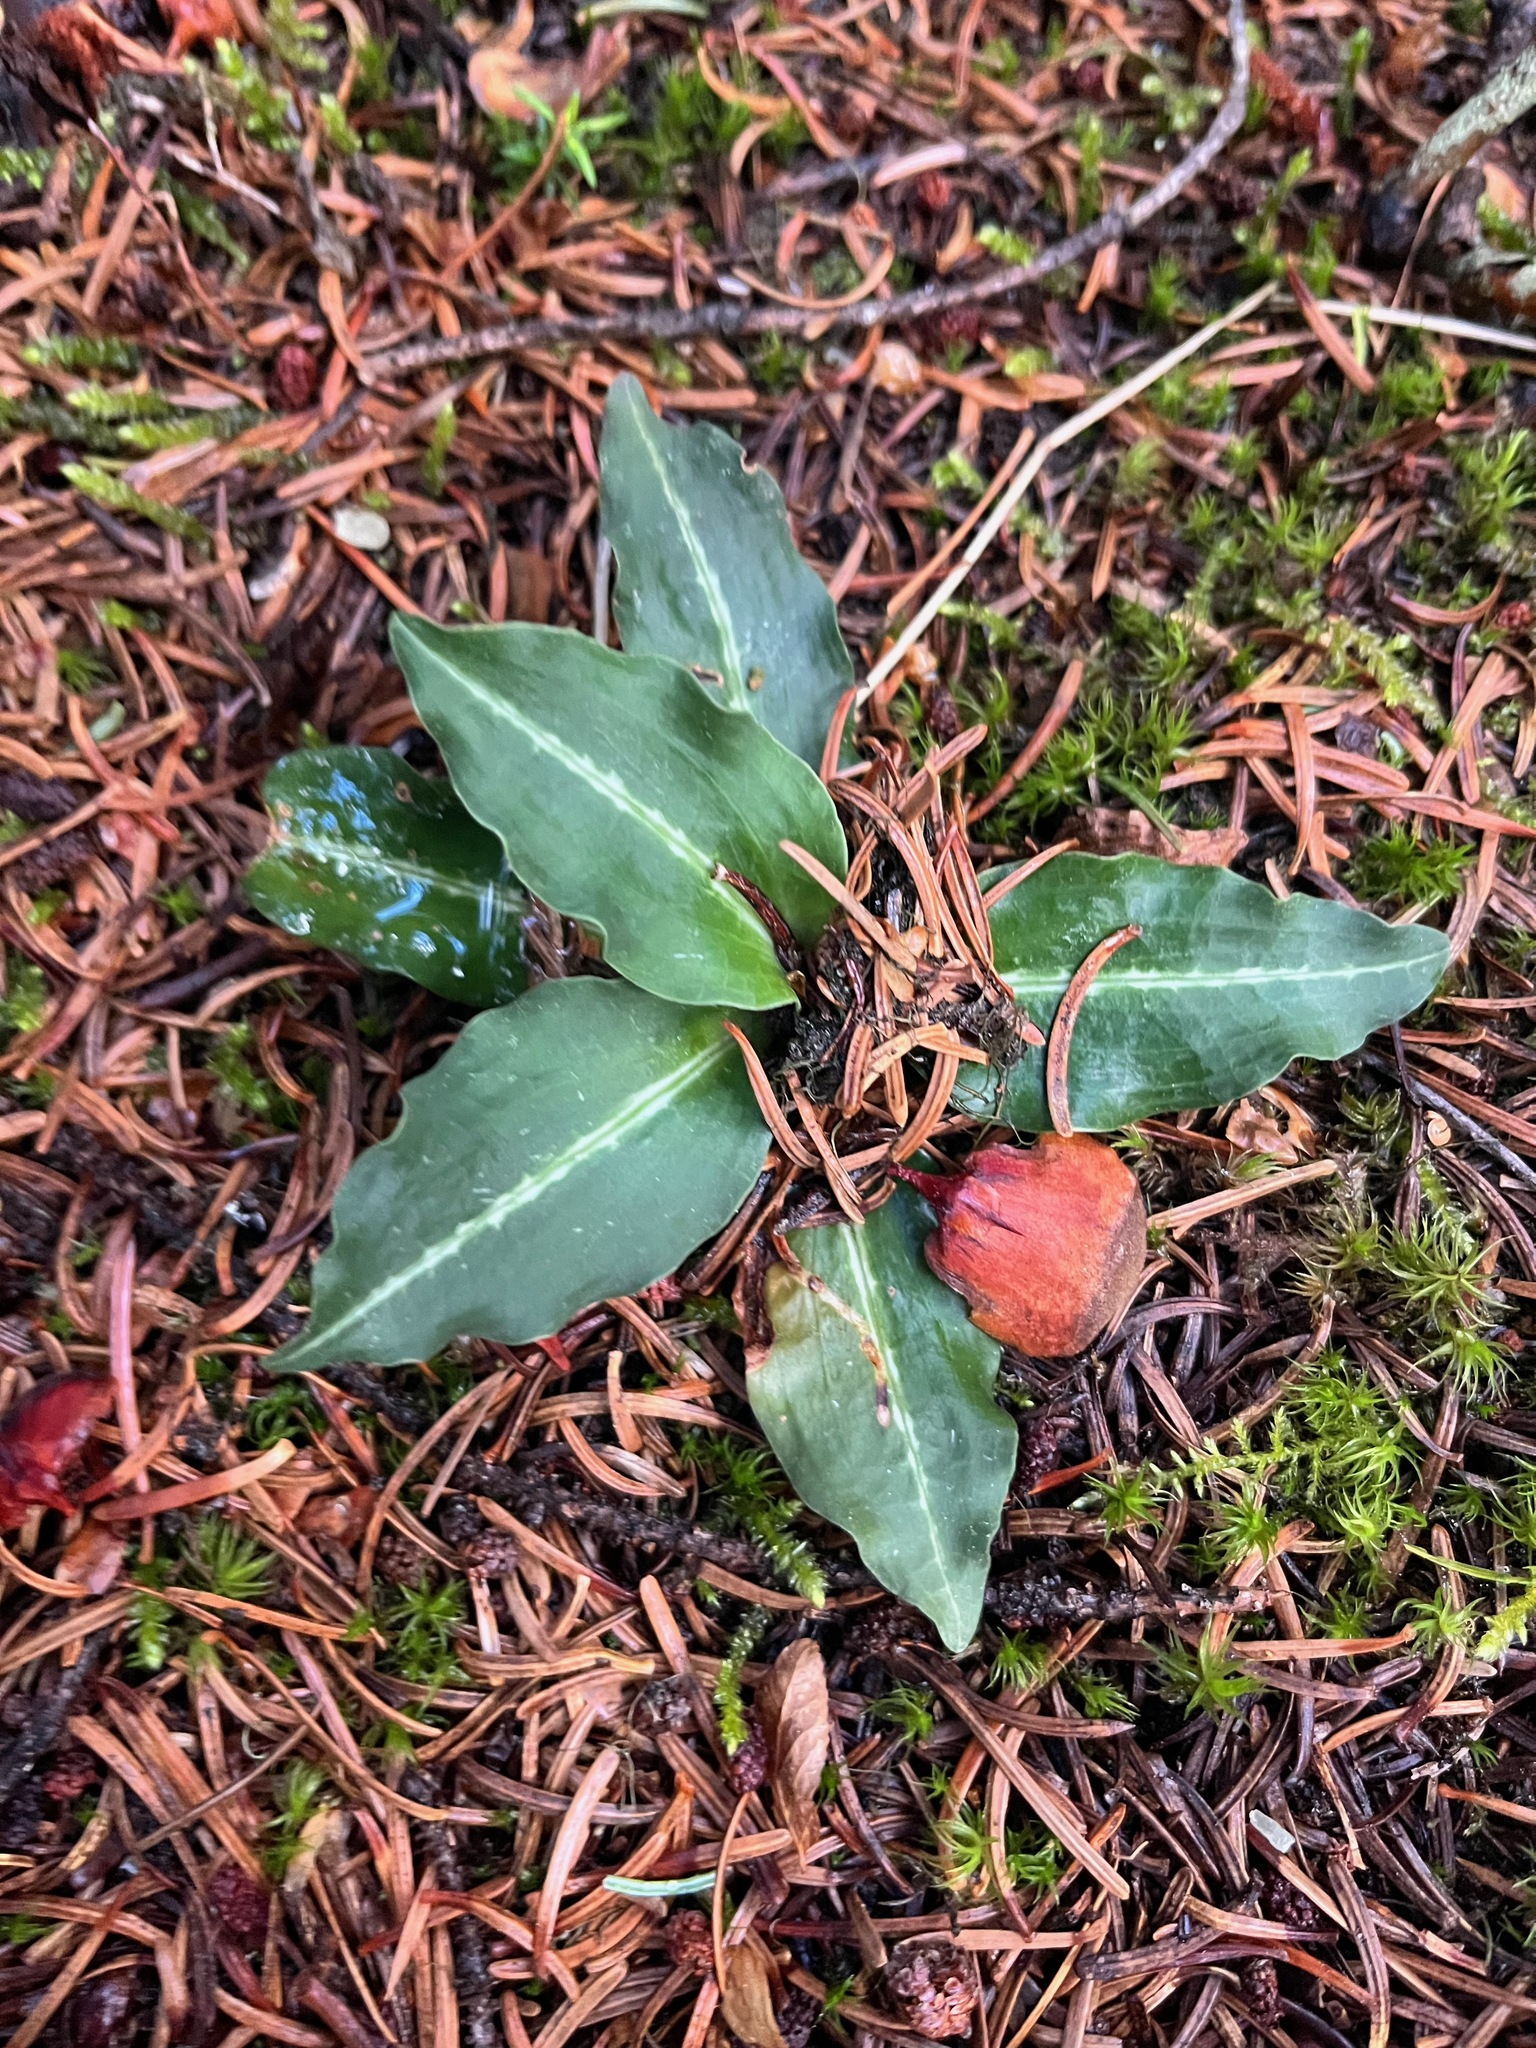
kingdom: Plantae
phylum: Tracheophyta
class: Liliopsida
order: Asparagales
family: Orchidaceae
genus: Goodyera
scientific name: Goodyera oblongifolia
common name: Giant rattlesnake-plantain
